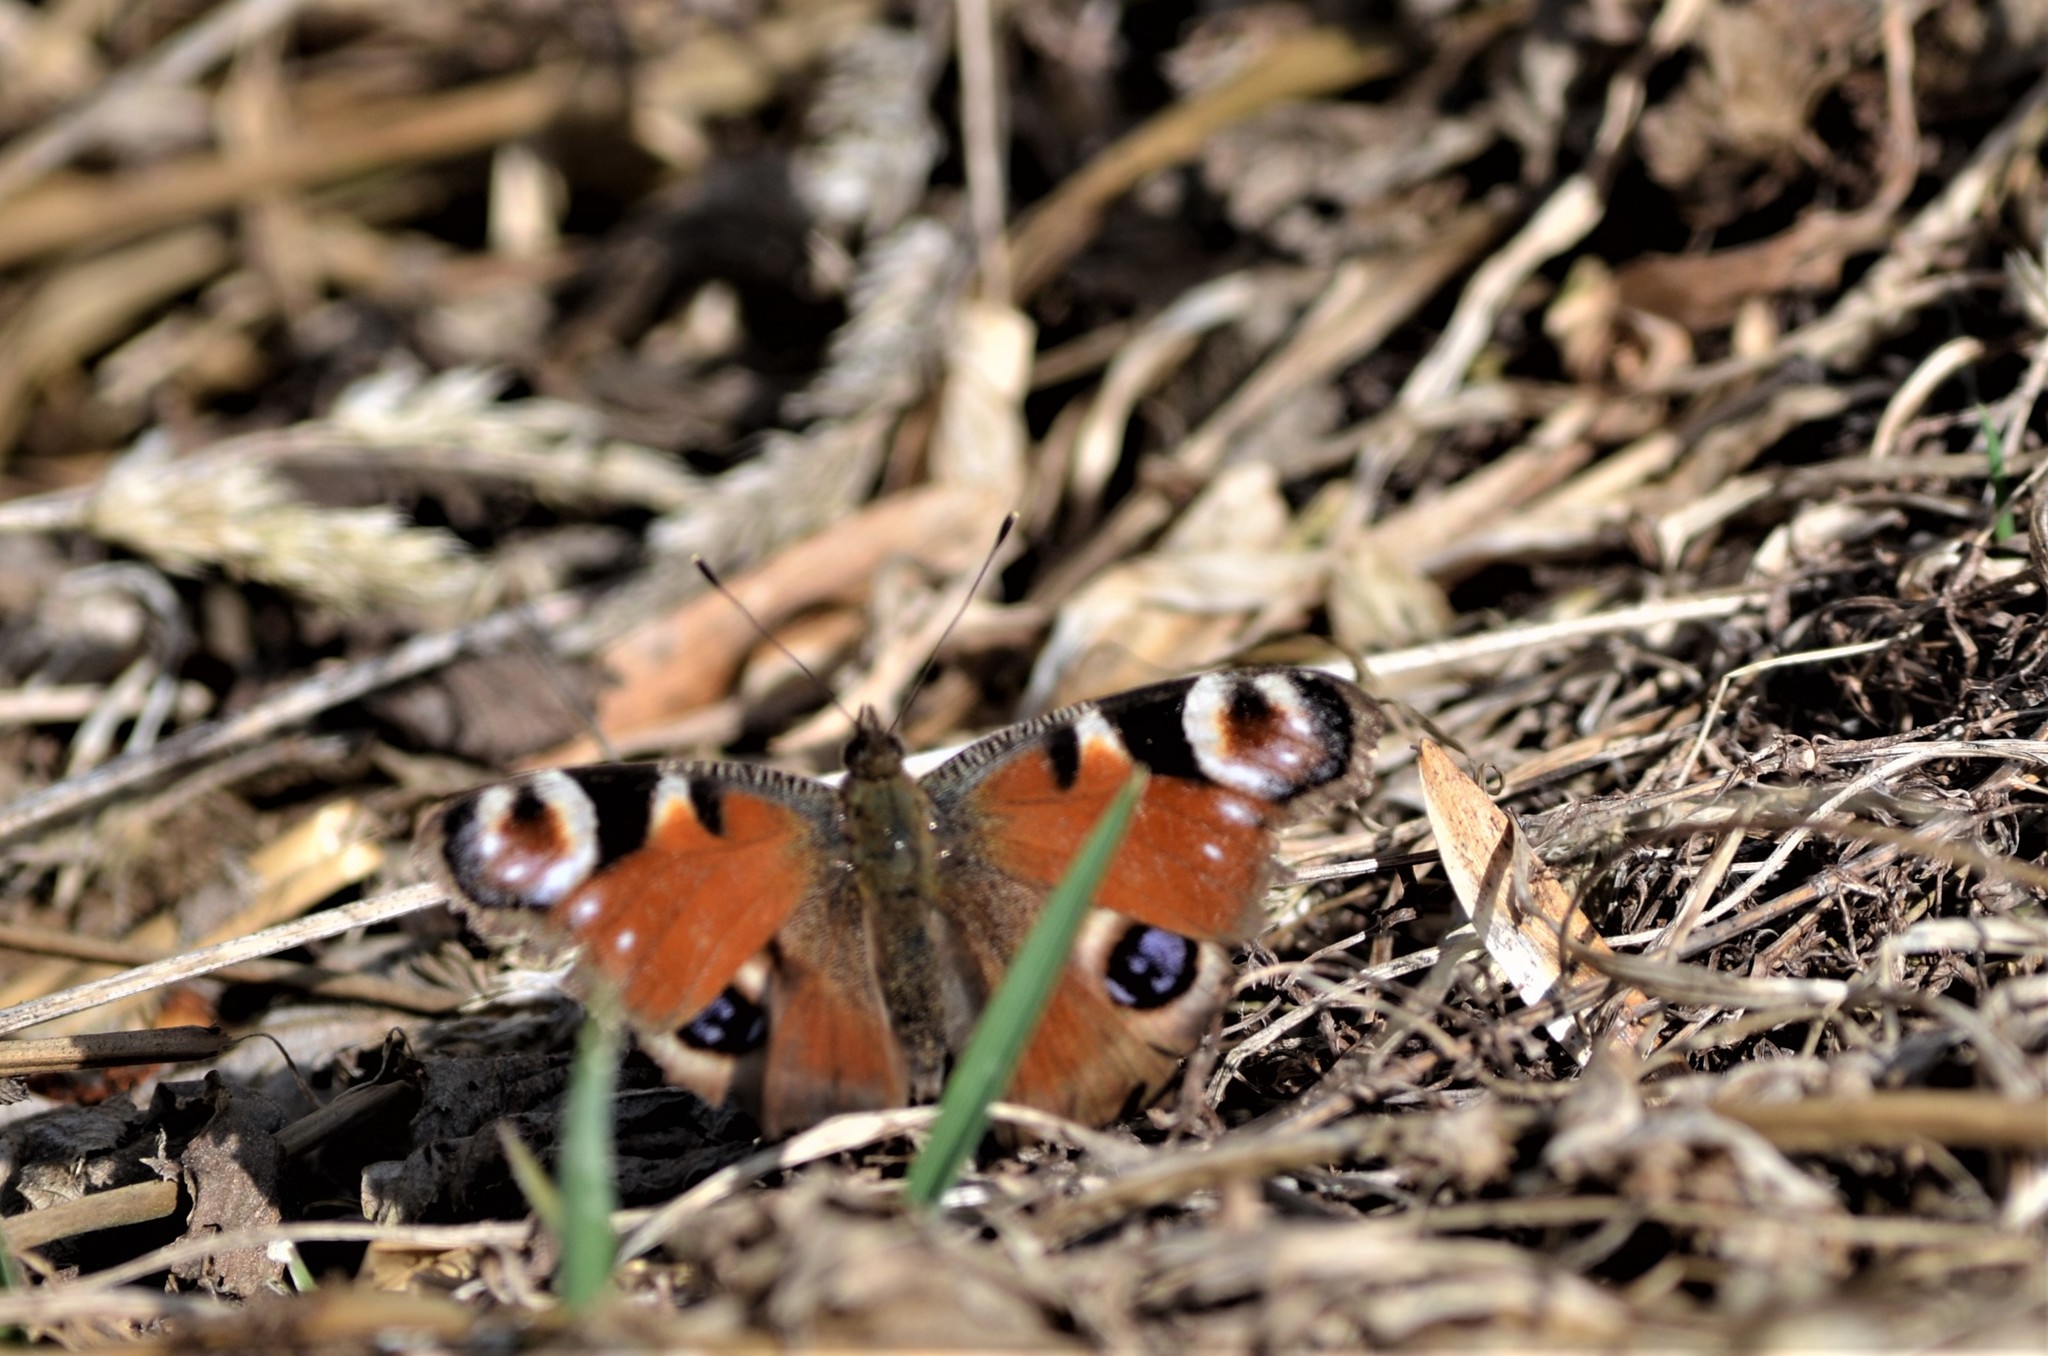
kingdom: Animalia
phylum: Arthropoda
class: Insecta
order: Lepidoptera
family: Nymphalidae
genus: Aglais
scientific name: Aglais io
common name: Peacock
